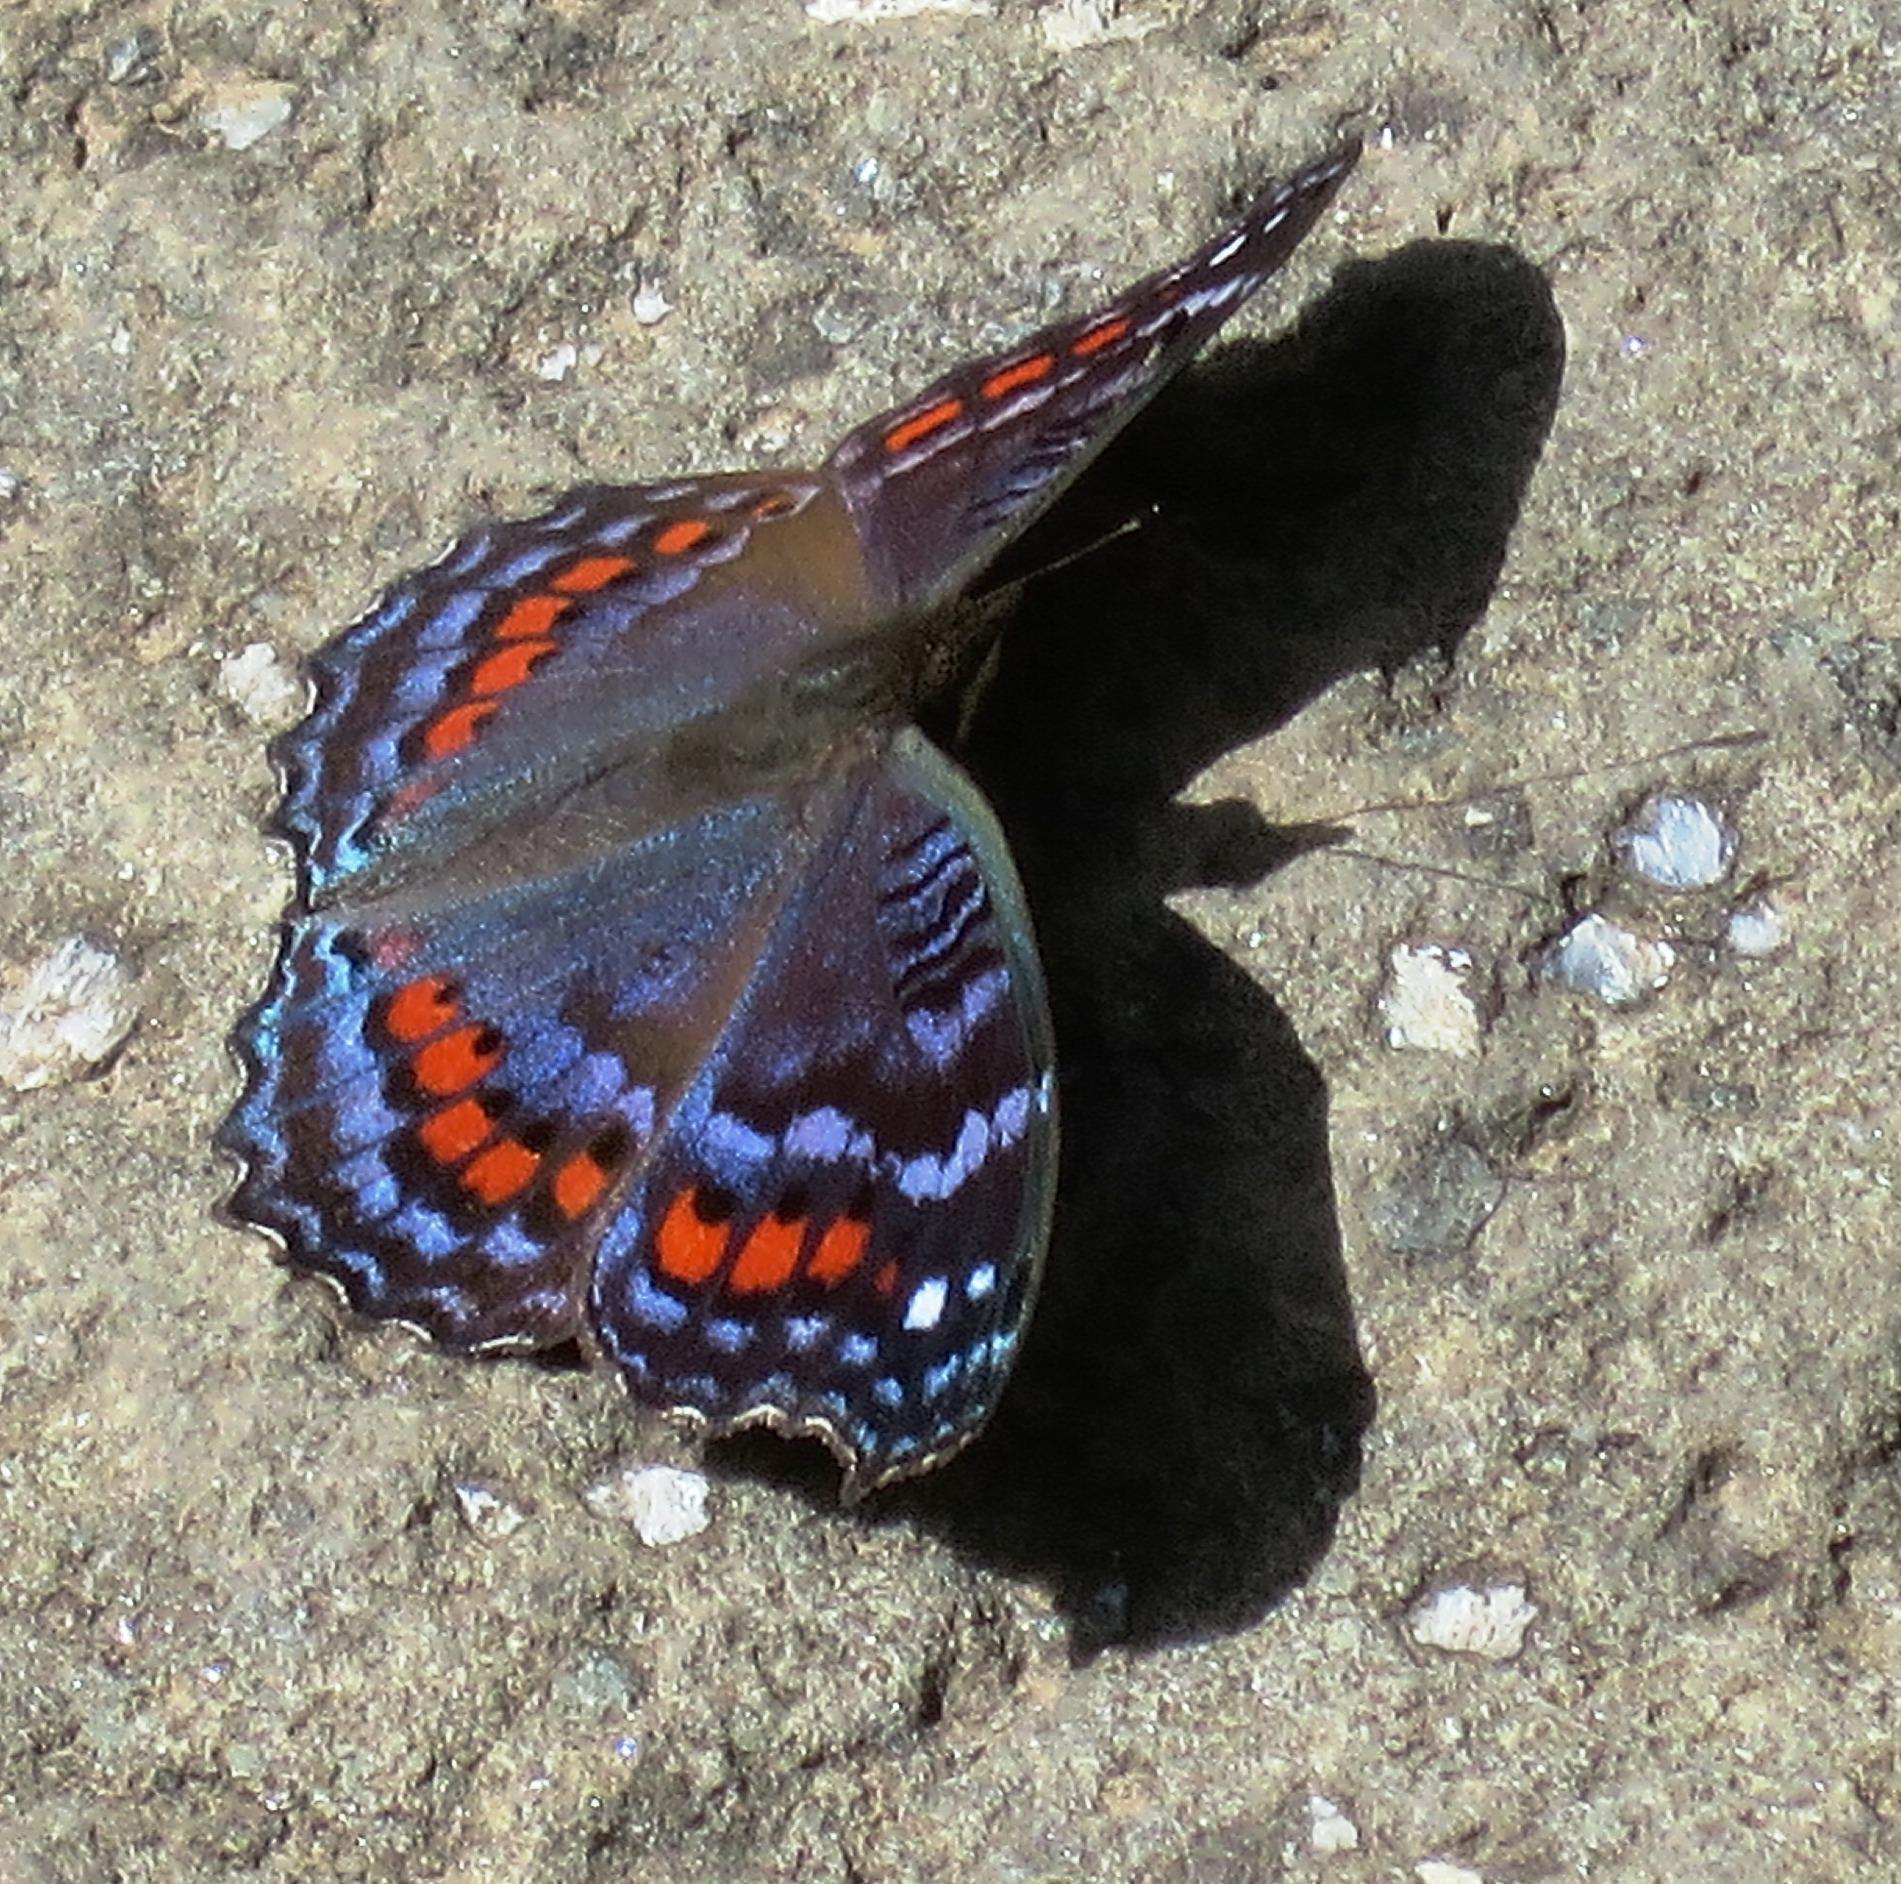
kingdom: Animalia
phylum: Arthropoda
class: Insecta
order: Lepidoptera
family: Nymphalidae
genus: Precis
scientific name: Precis octavia
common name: Gaudy commodore
